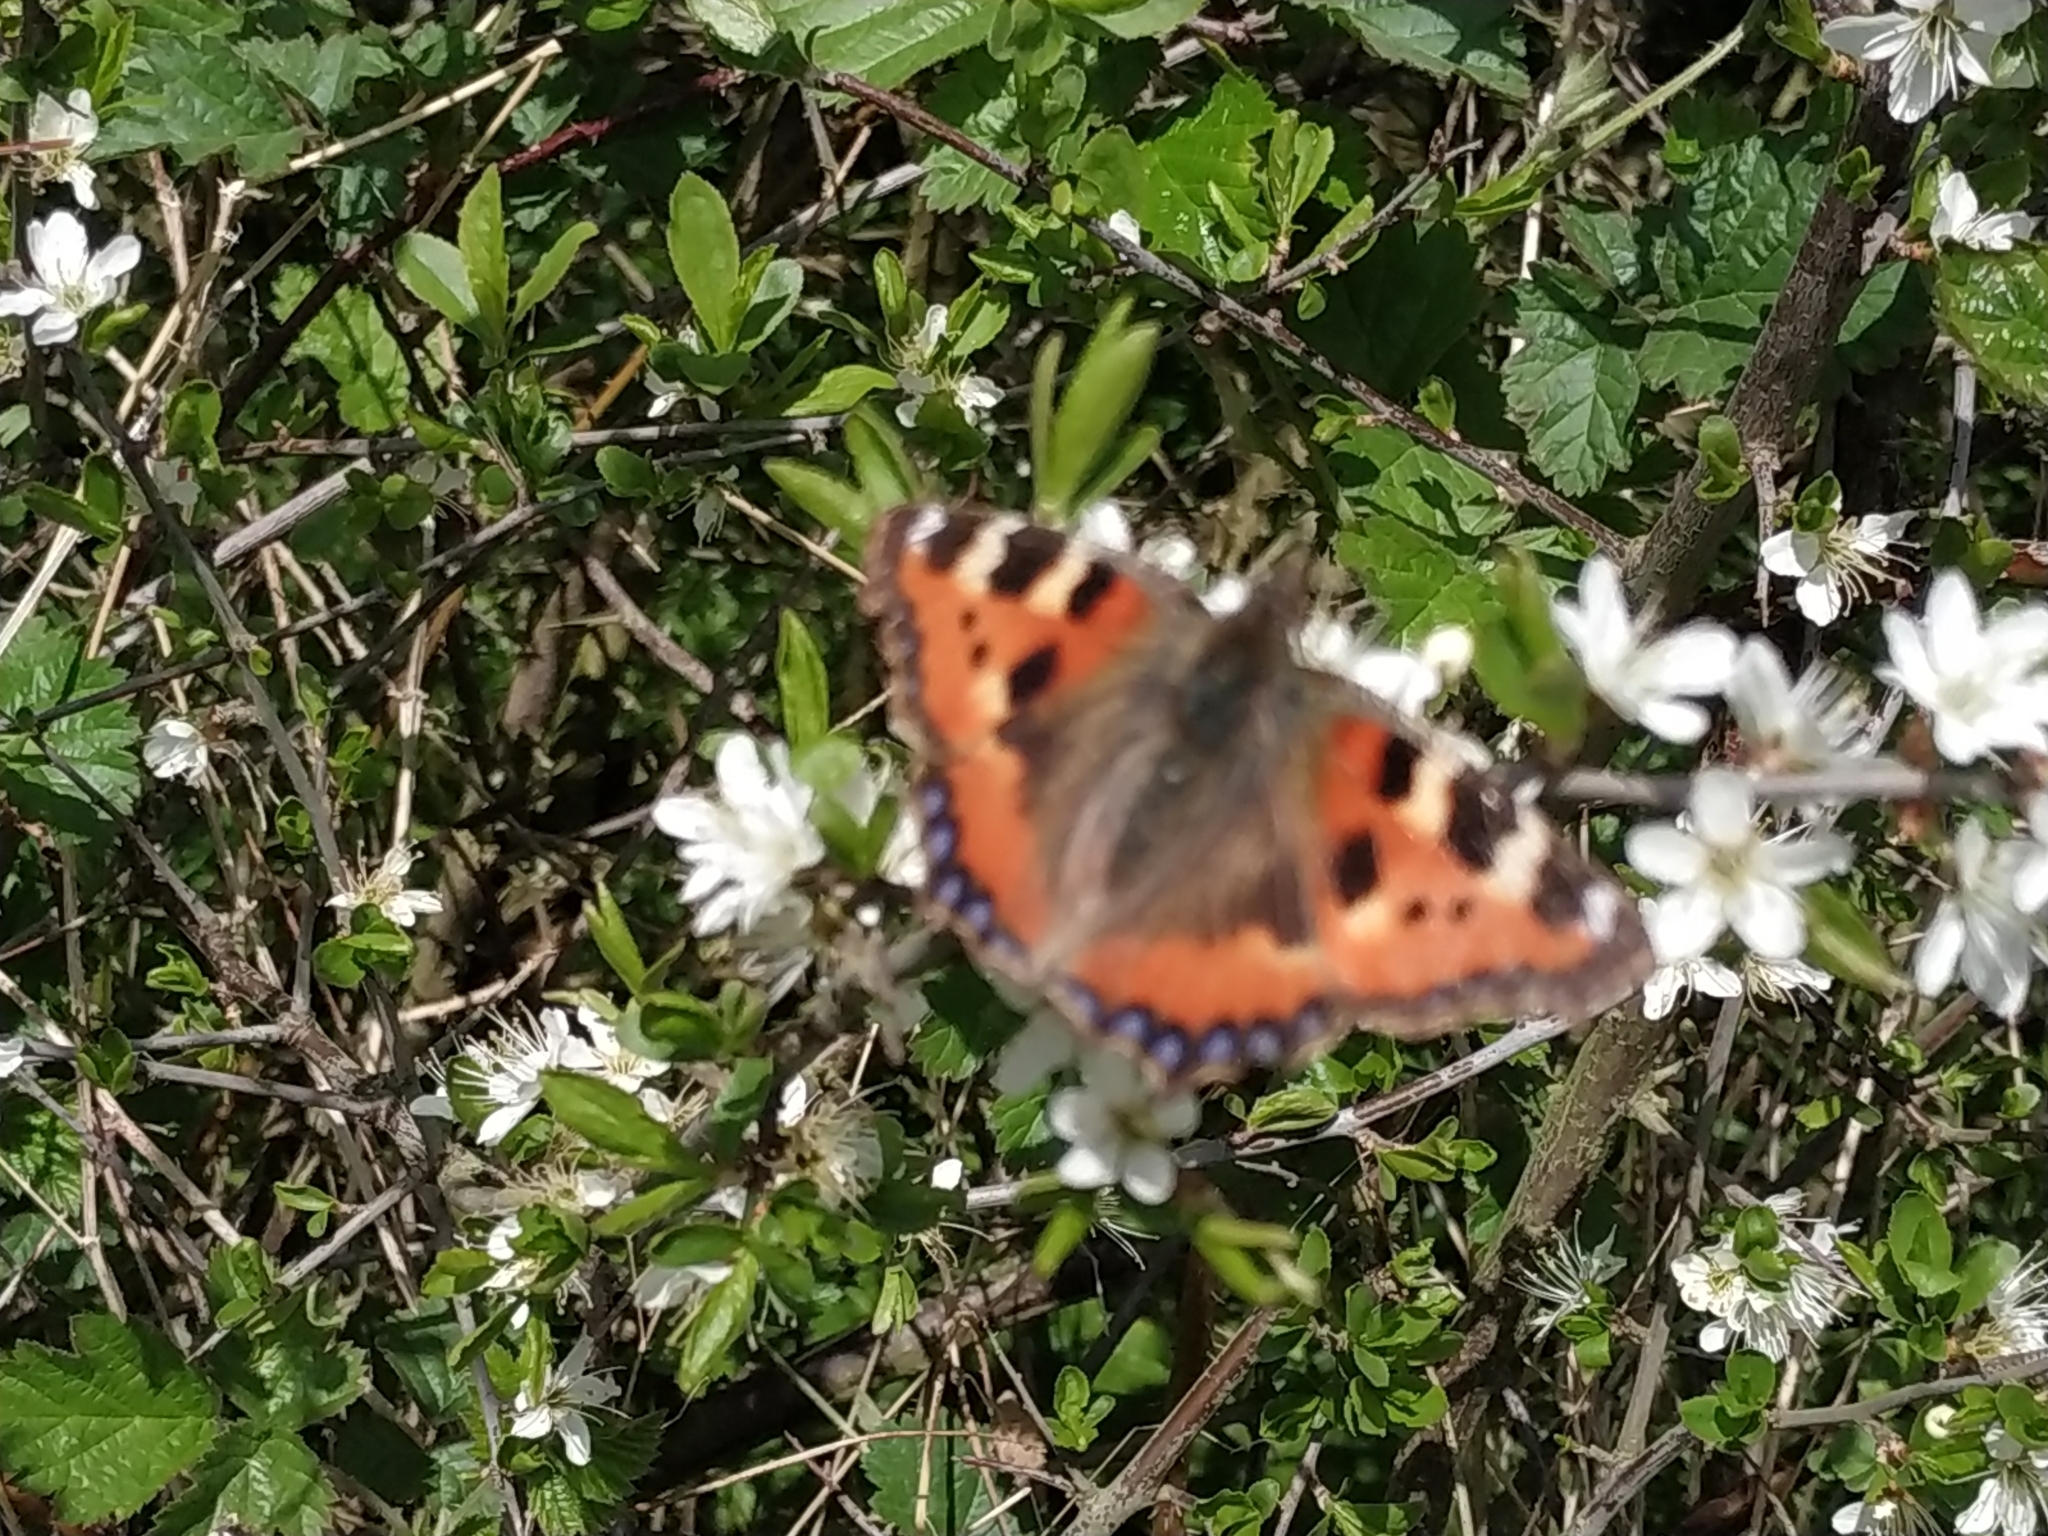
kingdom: Animalia
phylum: Arthropoda
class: Insecta
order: Lepidoptera
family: Nymphalidae
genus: Aglais
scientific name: Aglais urticae
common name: Small tortoiseshell
